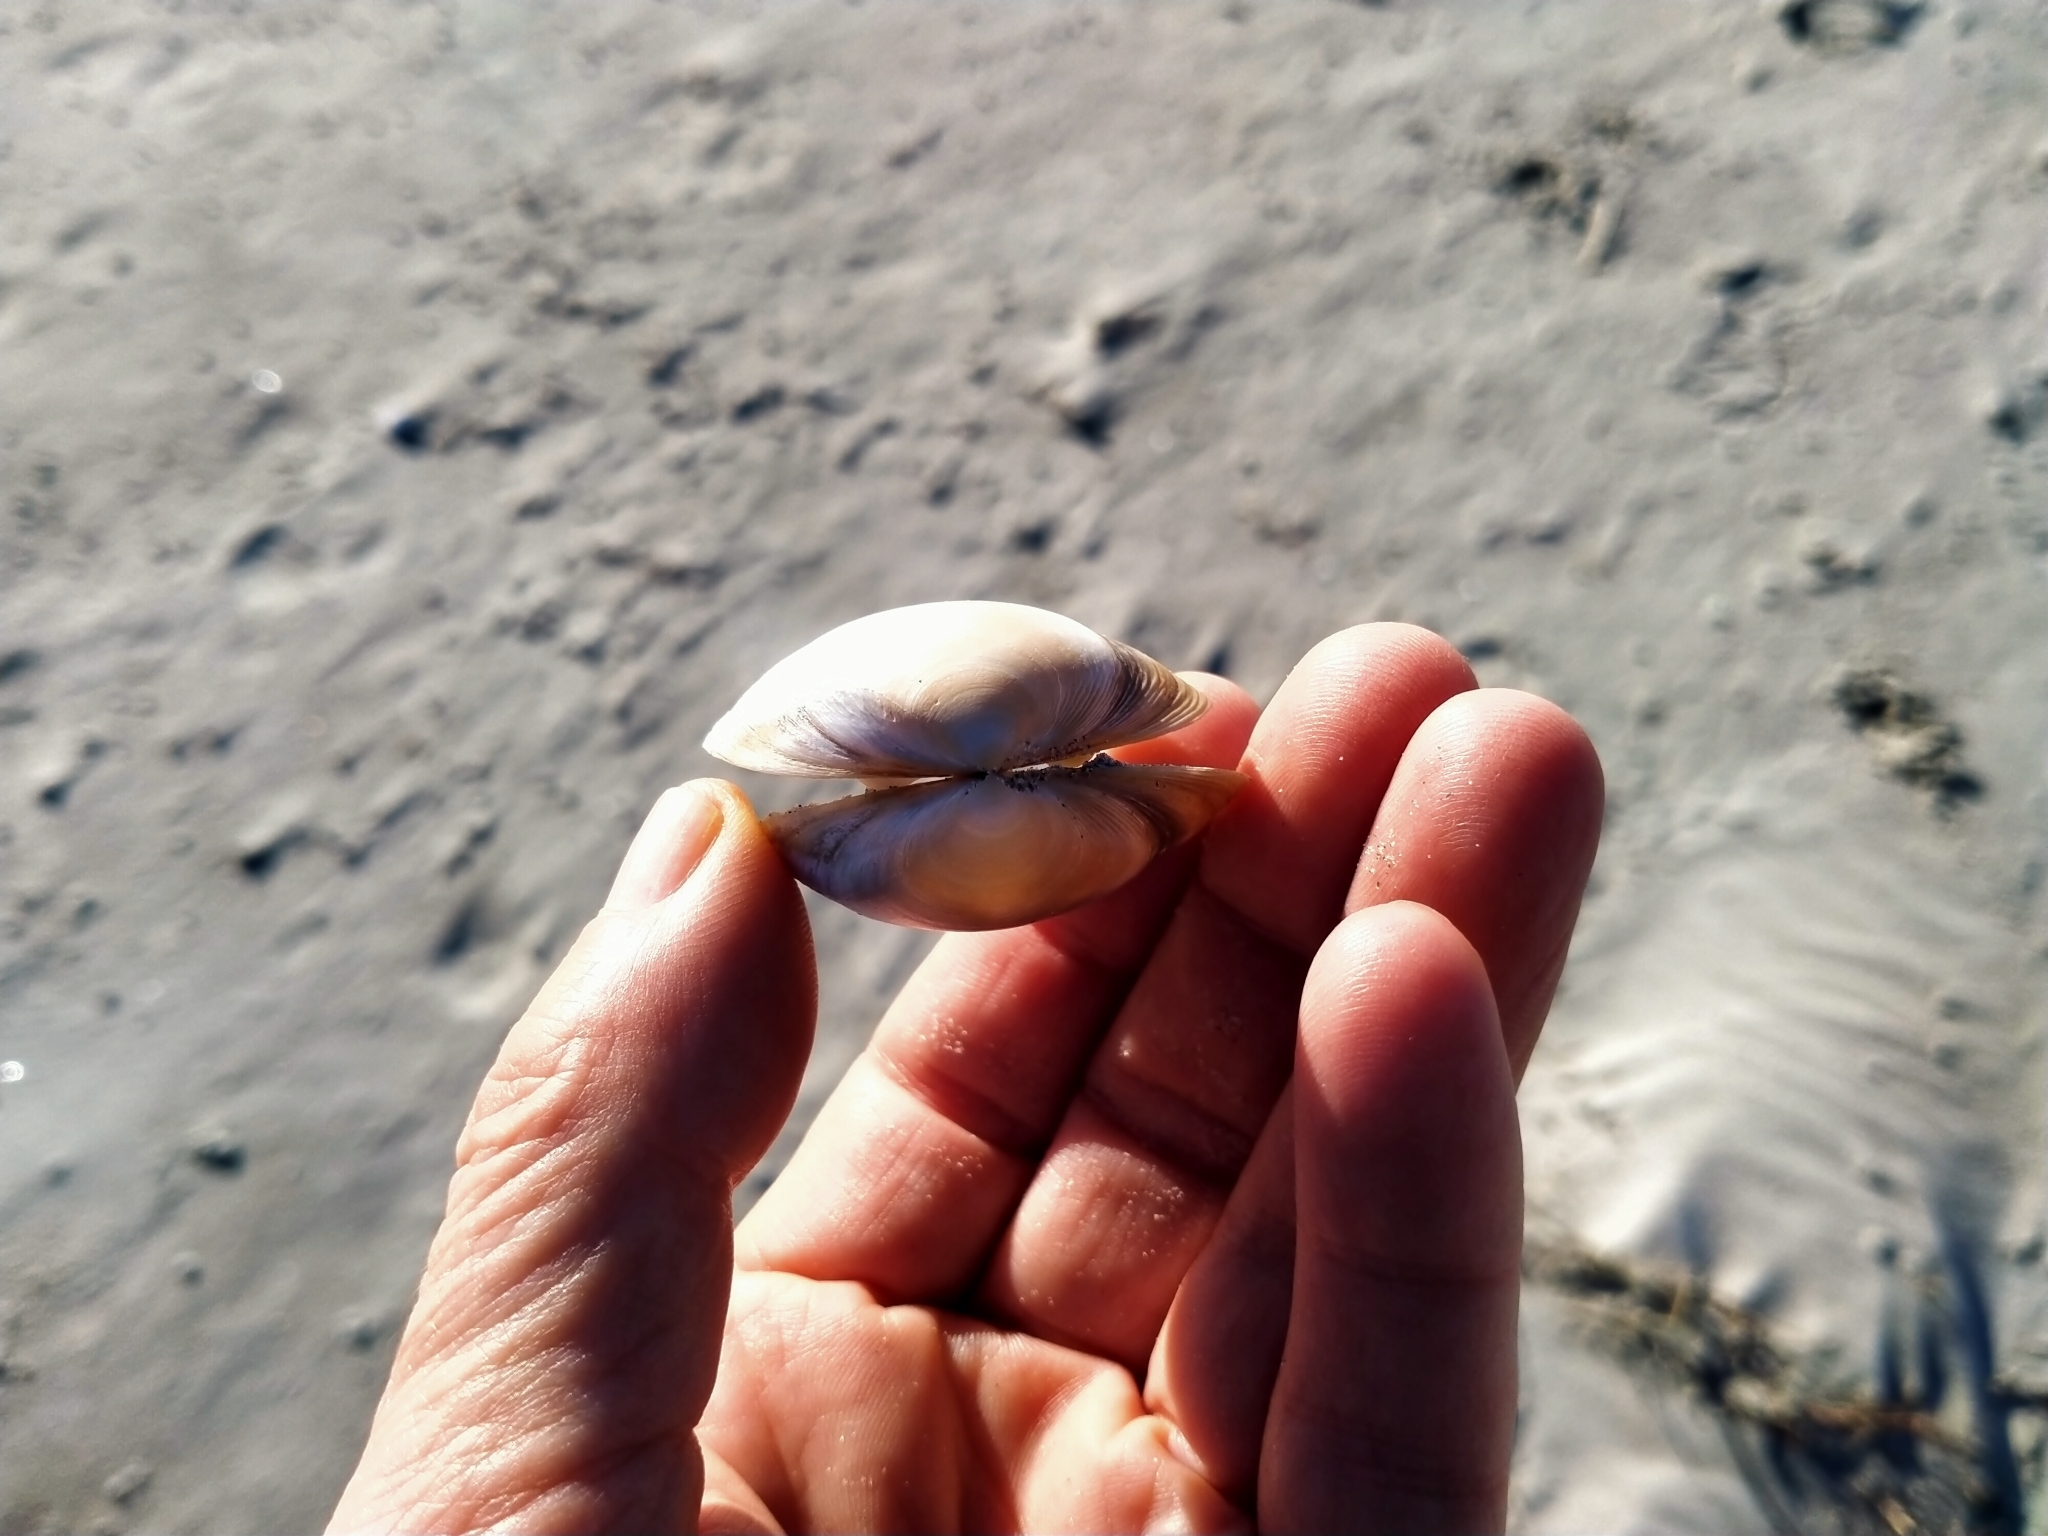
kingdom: Animalia
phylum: Mollusca
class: Bivalvia
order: Venerida
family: Mactridae
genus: Spisula
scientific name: Spisula discors
